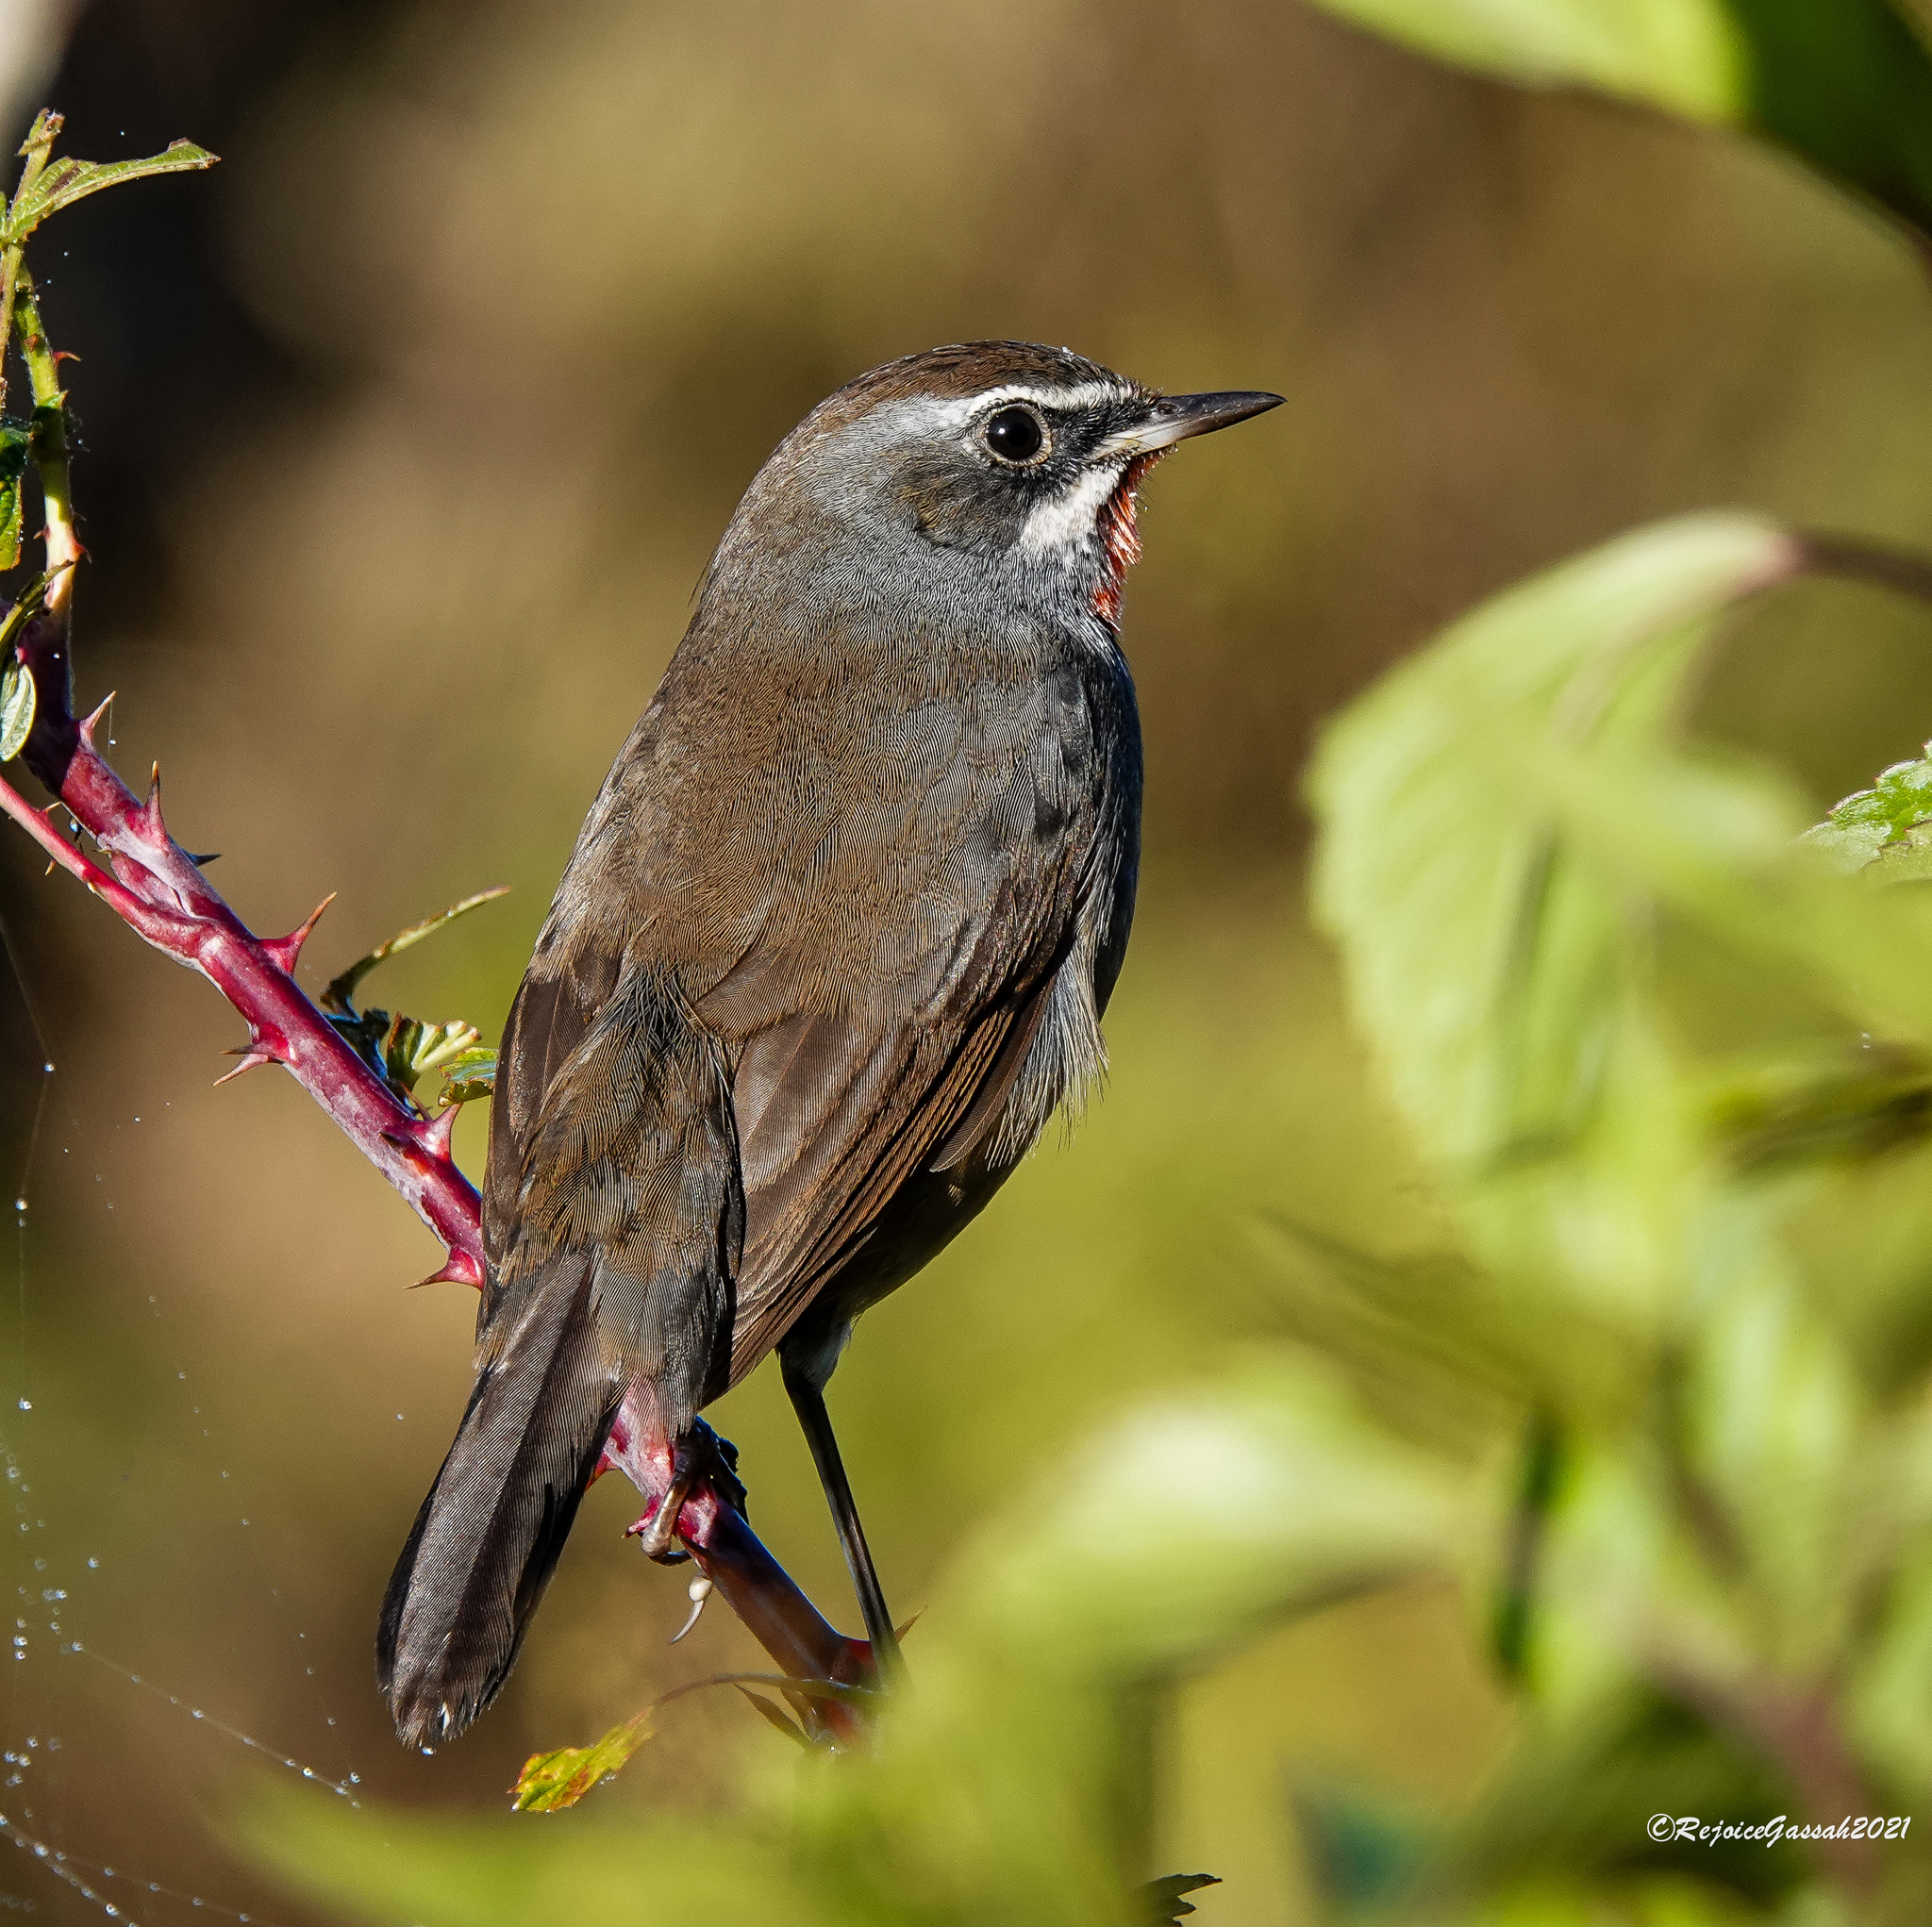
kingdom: Animalia
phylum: Chordata
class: Aves
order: Passeriformes
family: Muscicapidae
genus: Calliope
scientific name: Calliope tschebaiewi
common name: Chinese rubythroat
